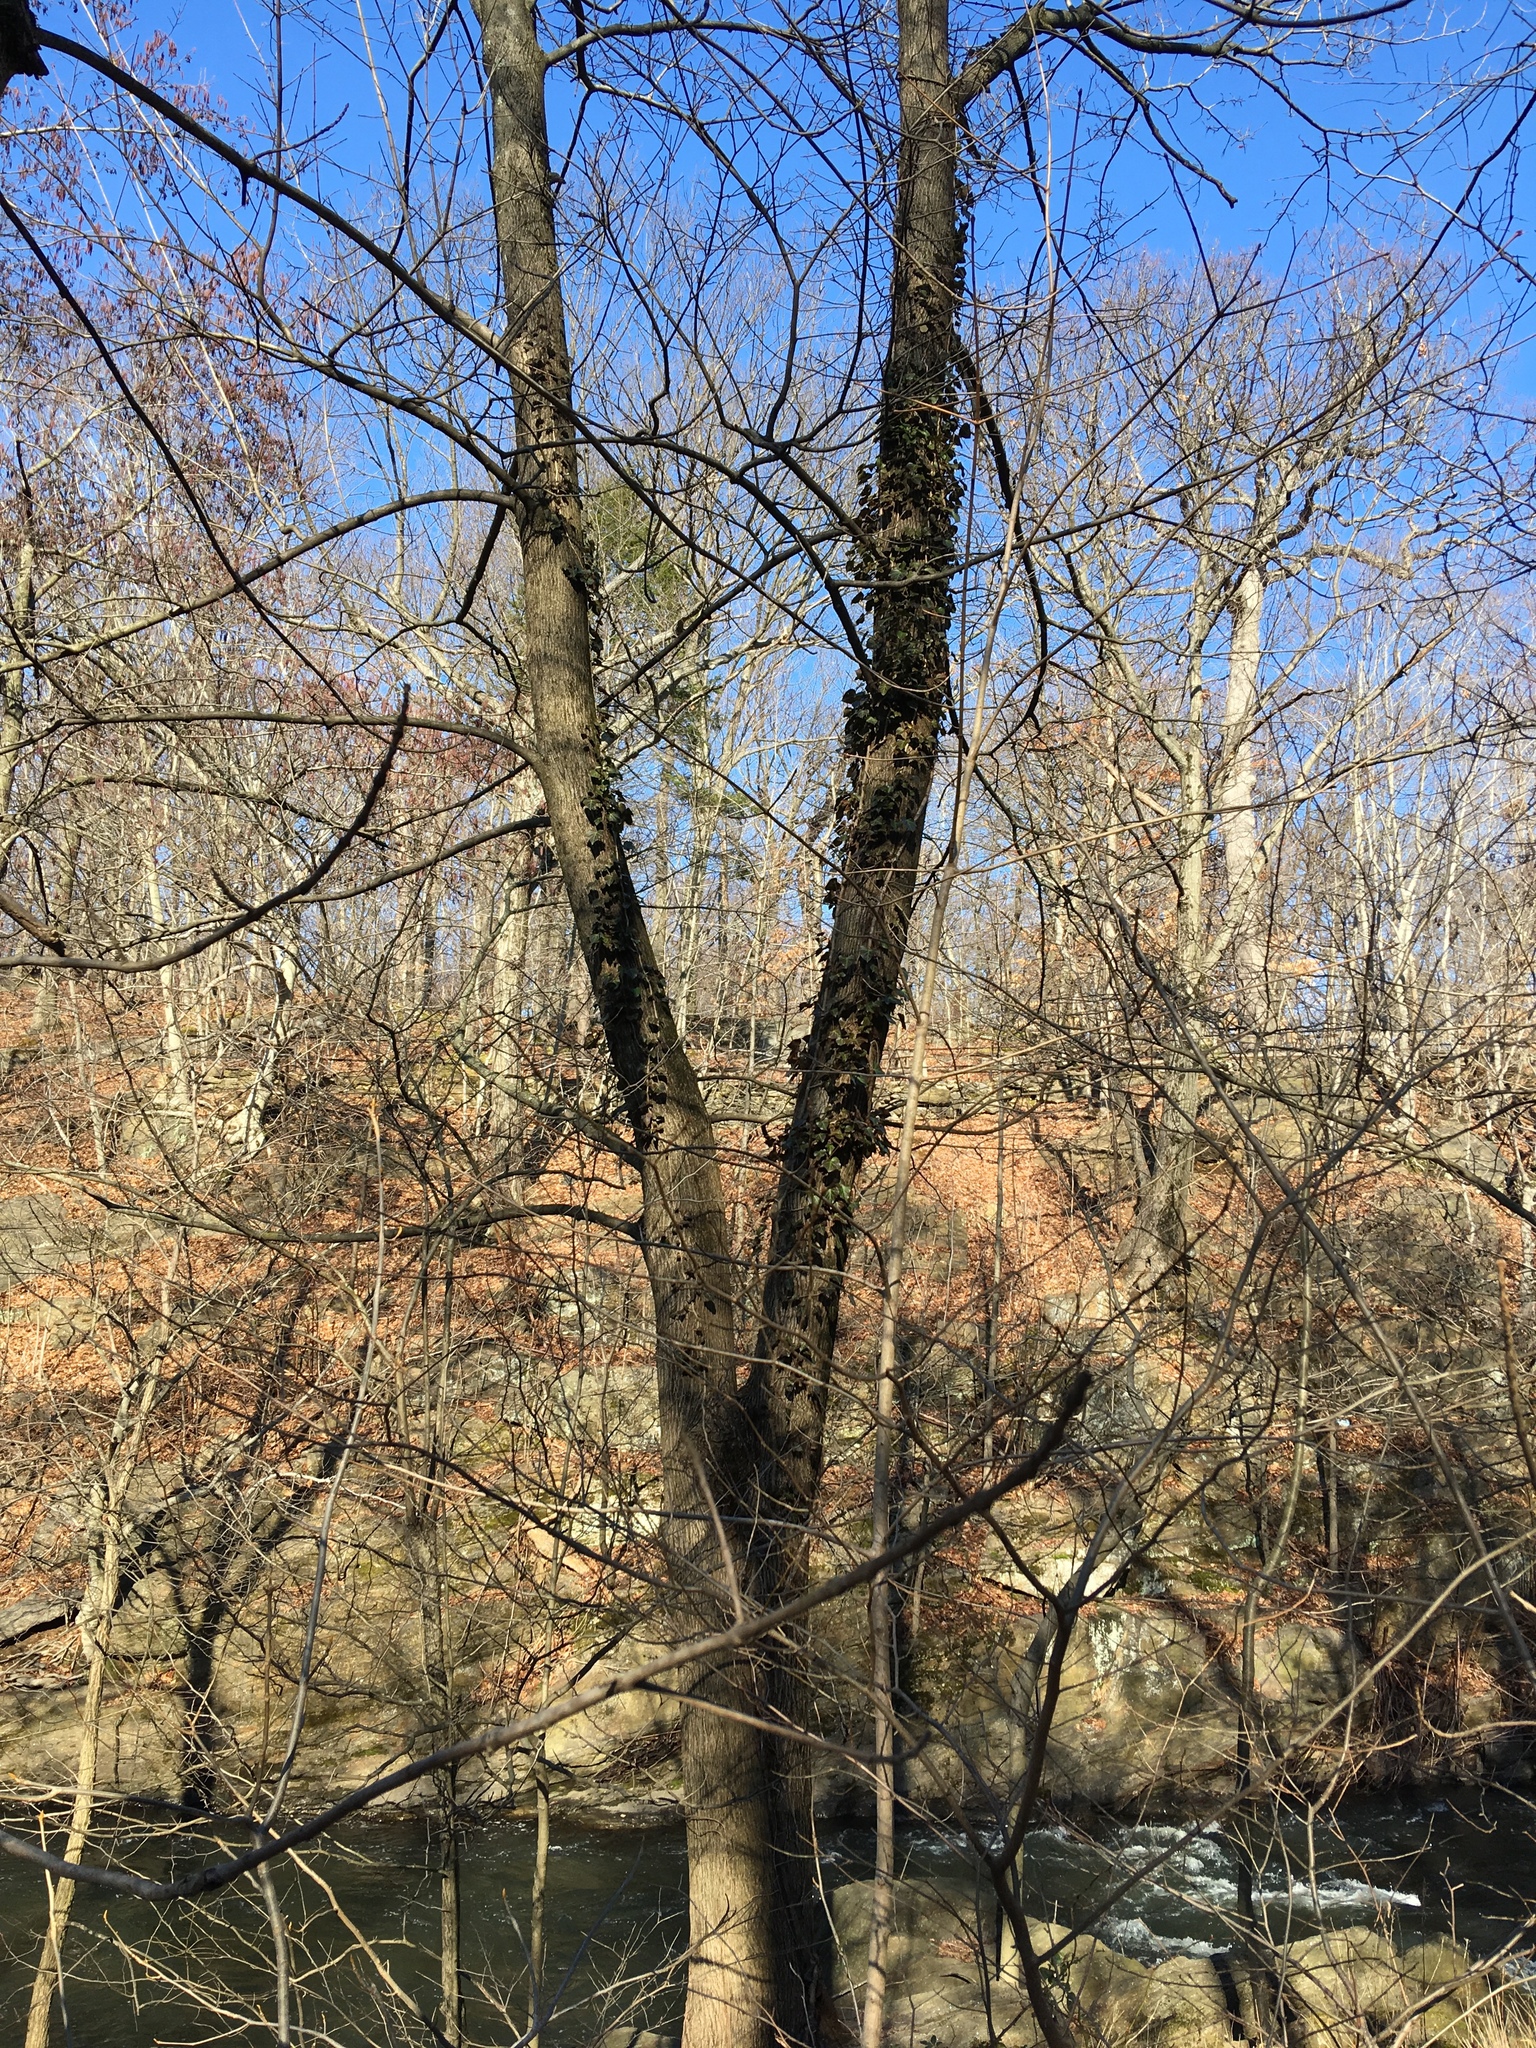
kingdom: Plantae
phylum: Tracheophyta
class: Magnoliopsida
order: Apiales
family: Araliaceae
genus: Hedera
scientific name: Hedera helix
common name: Ivy
